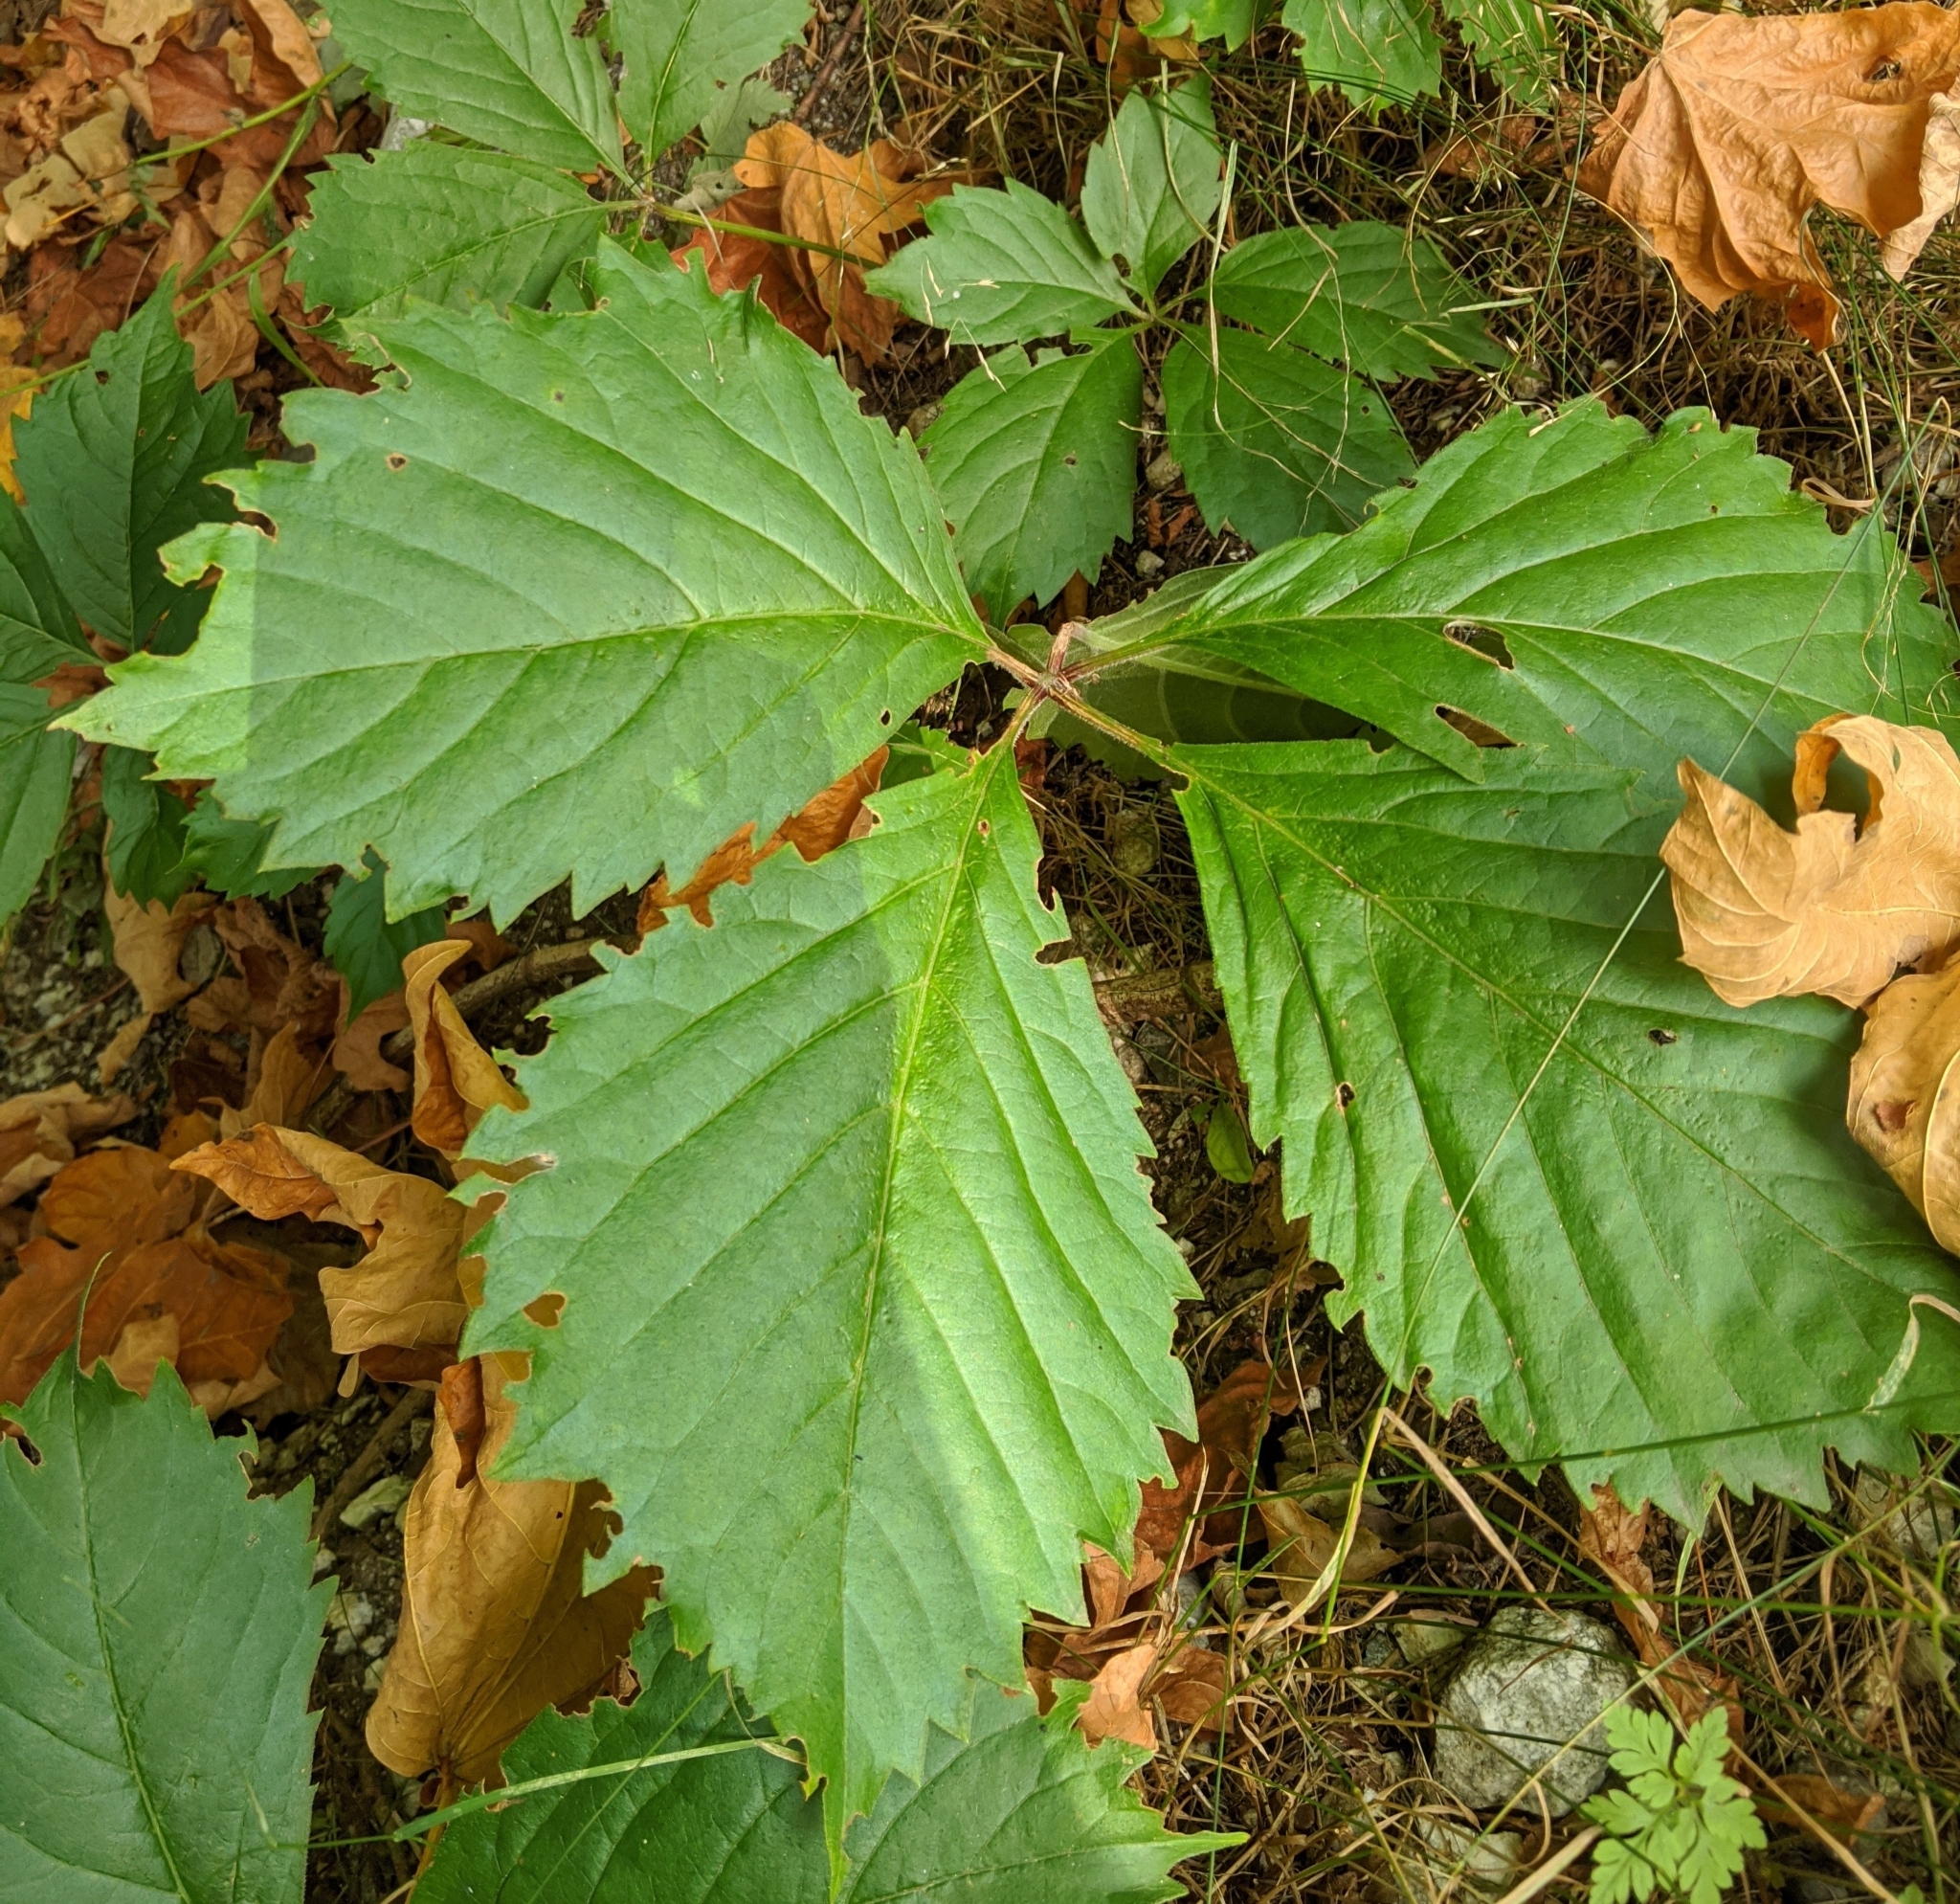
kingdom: Plantae
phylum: Tracheophyta
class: Magnoliopsida
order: Vitales
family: Vitaceae
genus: Parthenocissus
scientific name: Parthenocissus inserta
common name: False virginia-creeper
